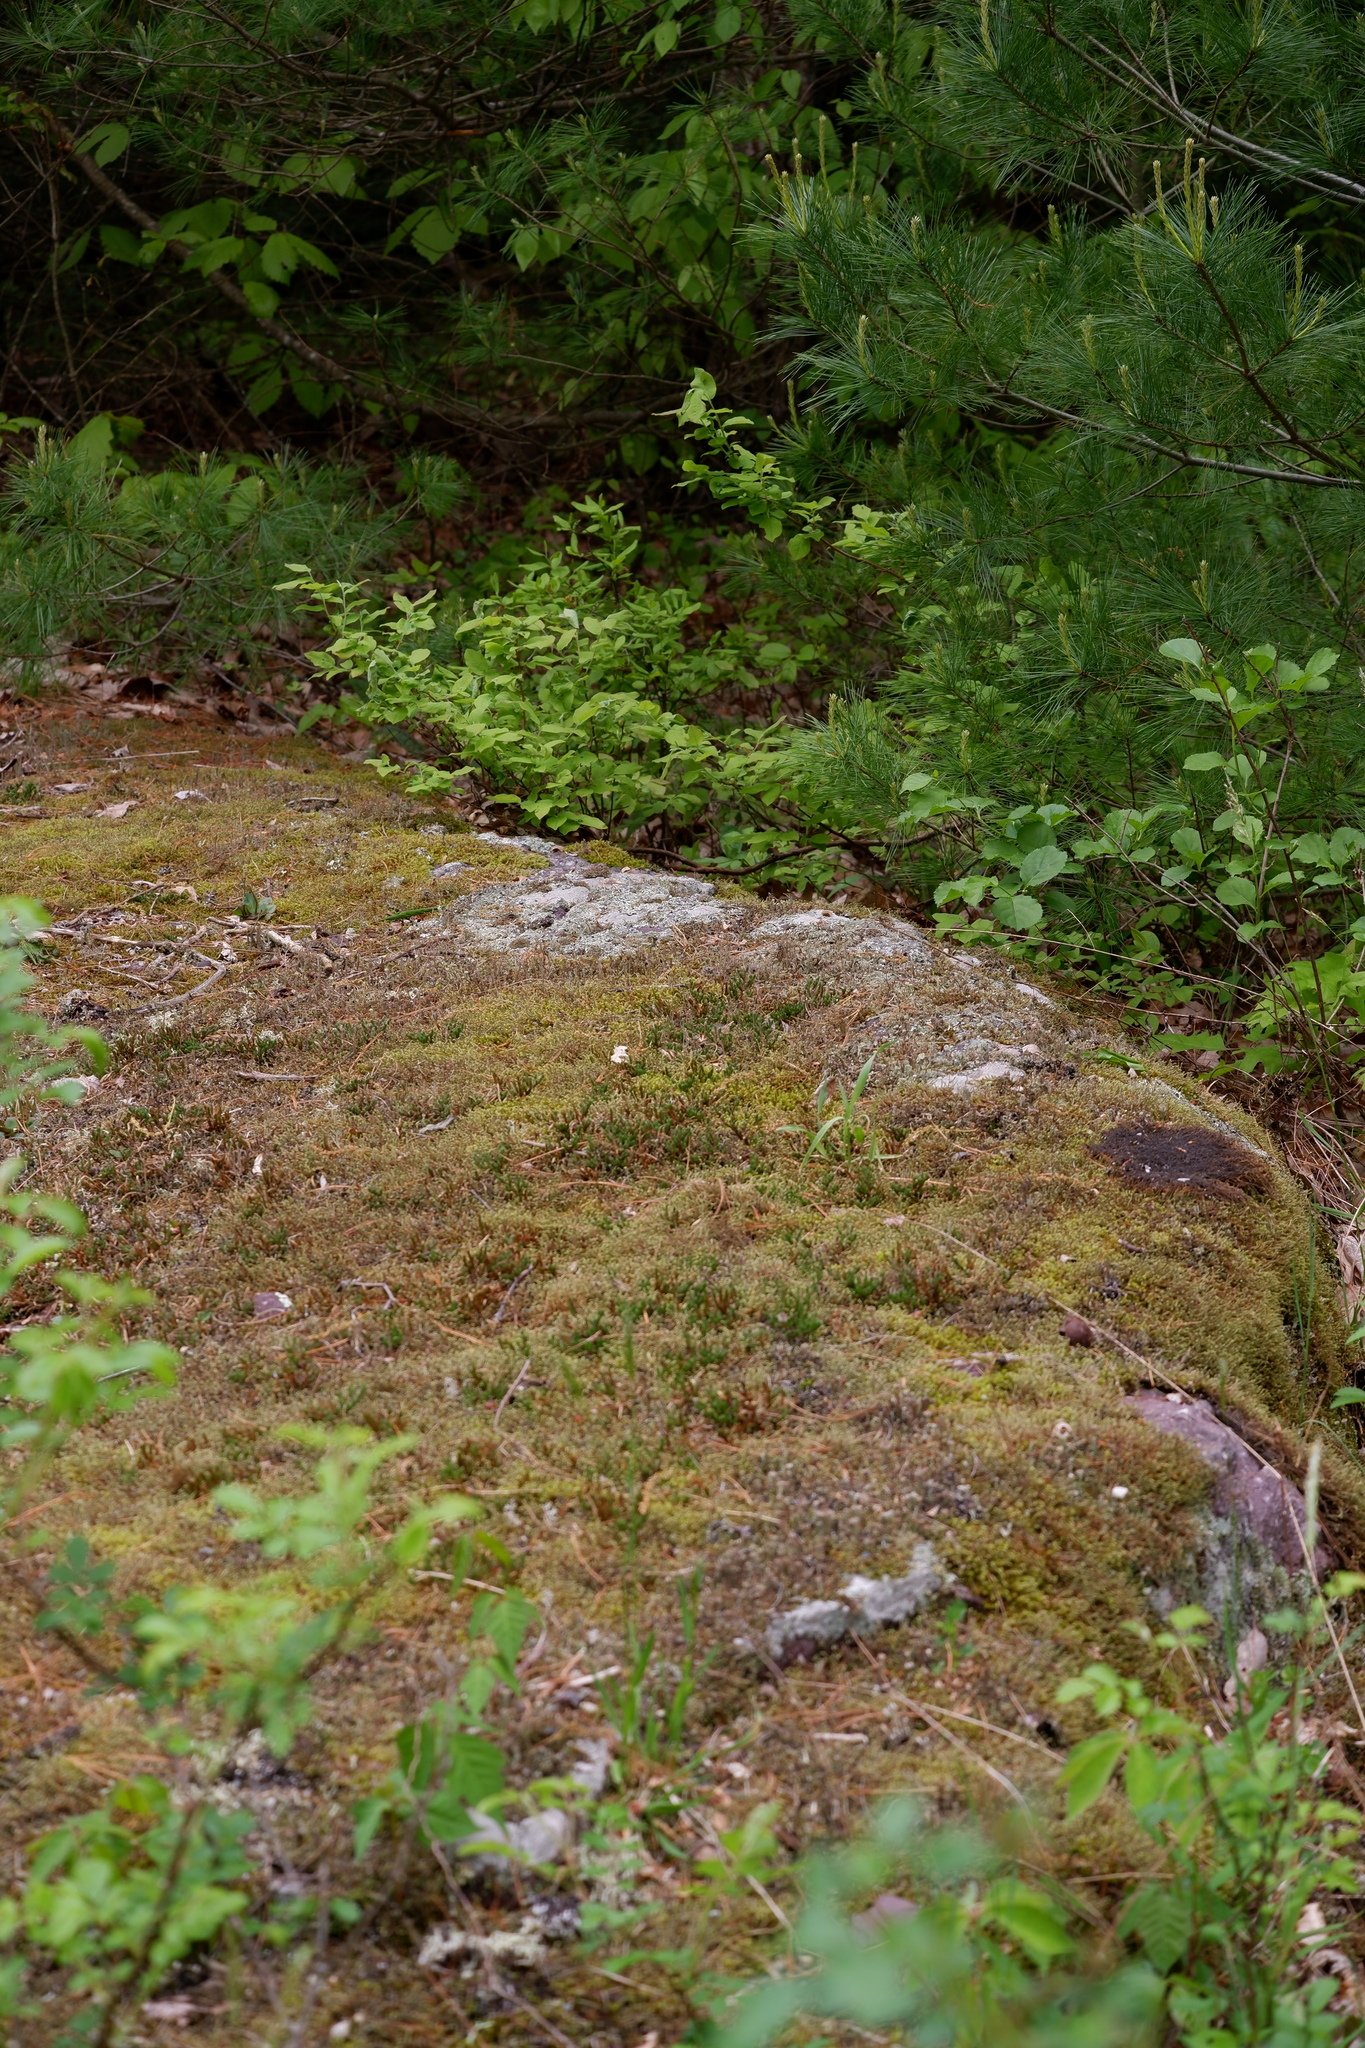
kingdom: Plantae
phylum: Tracheophyta
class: Lycopodiopsida
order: Selaginellales
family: Selaginellaceae
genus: Selaginella
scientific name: Selaginella rupestris
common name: Dwarf spikemoss
